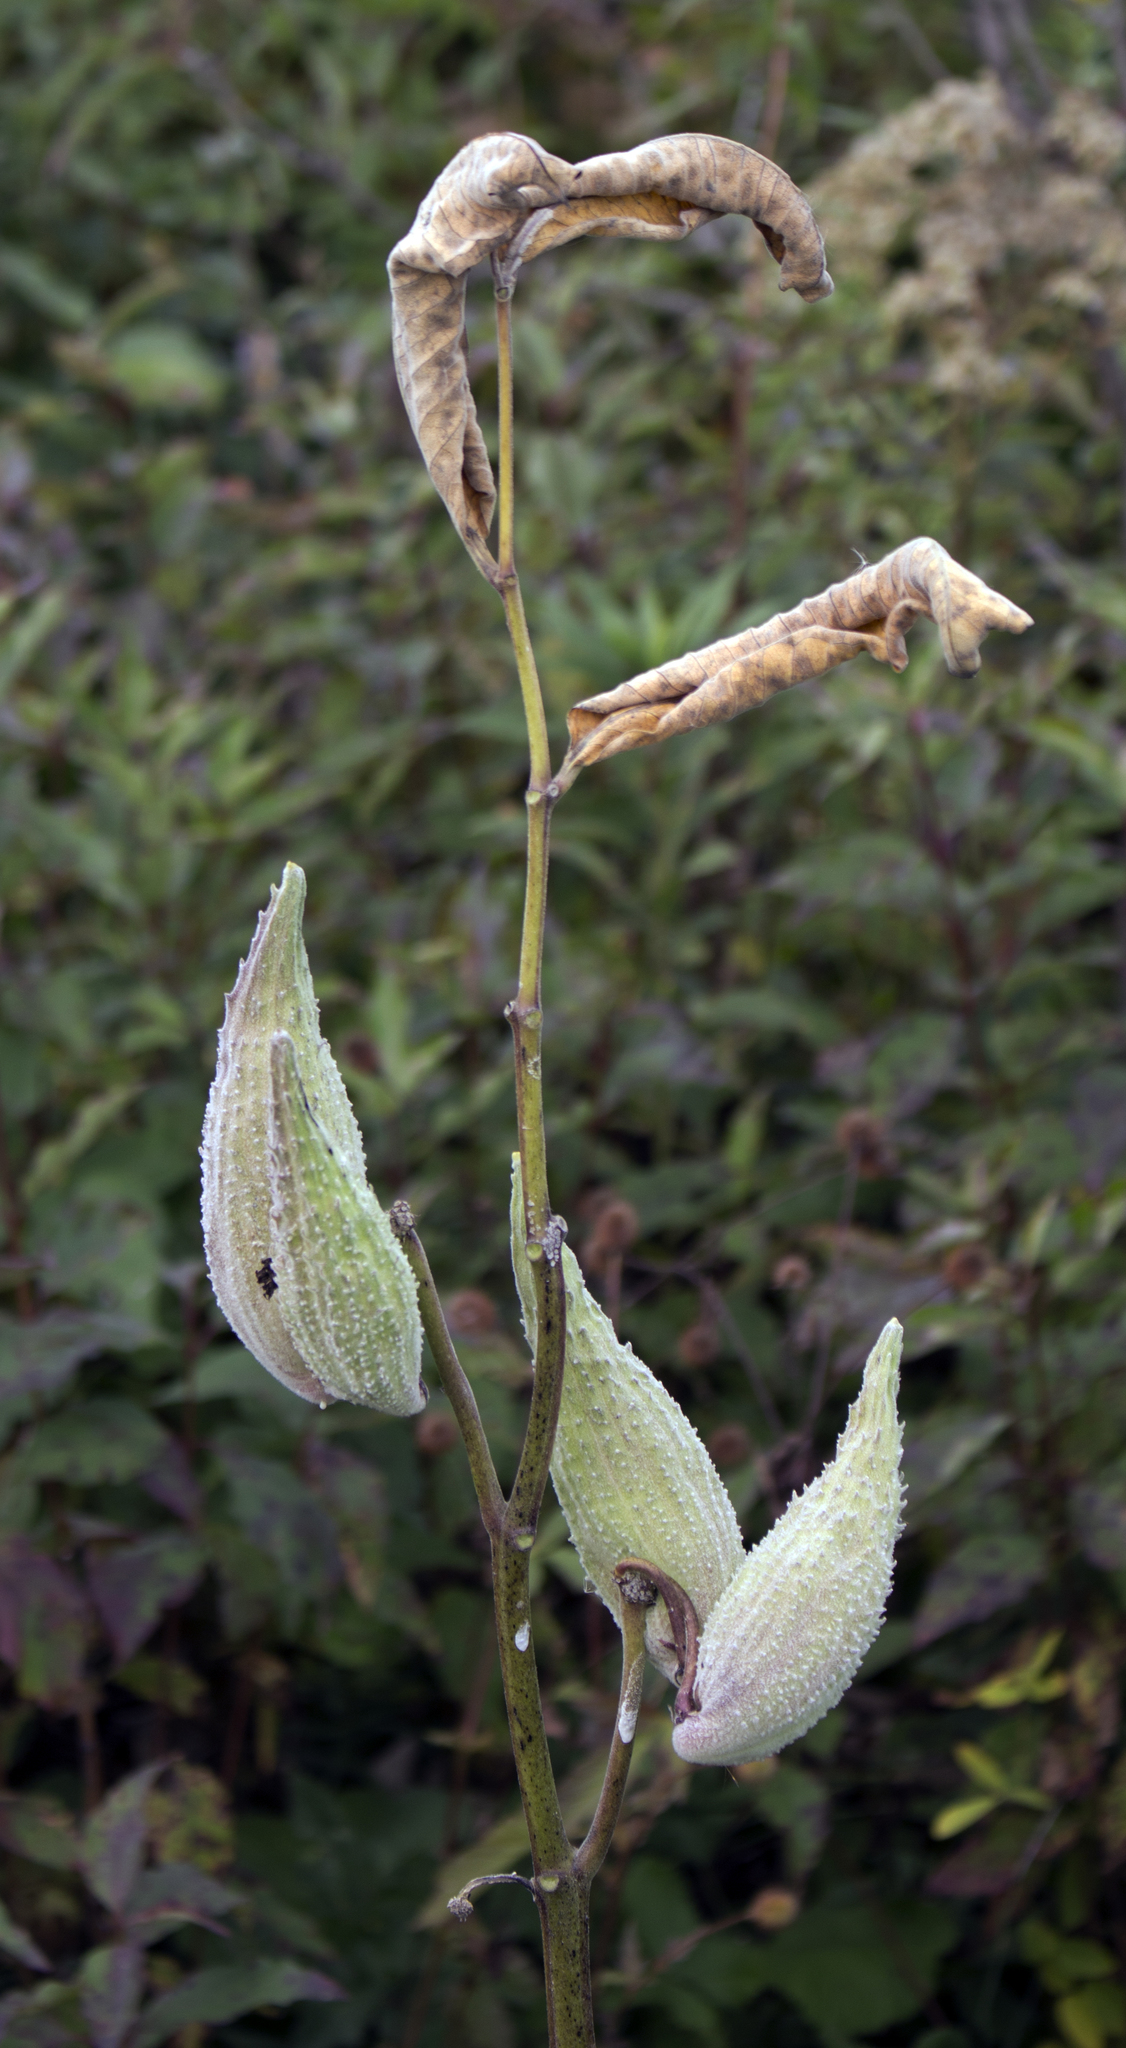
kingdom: Plantae
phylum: Tracheophyta
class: Magnoliopsida
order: Gentianales
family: Apocynaceae
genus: Asclepias
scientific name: Asclepias syriaca
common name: Common milkweed
